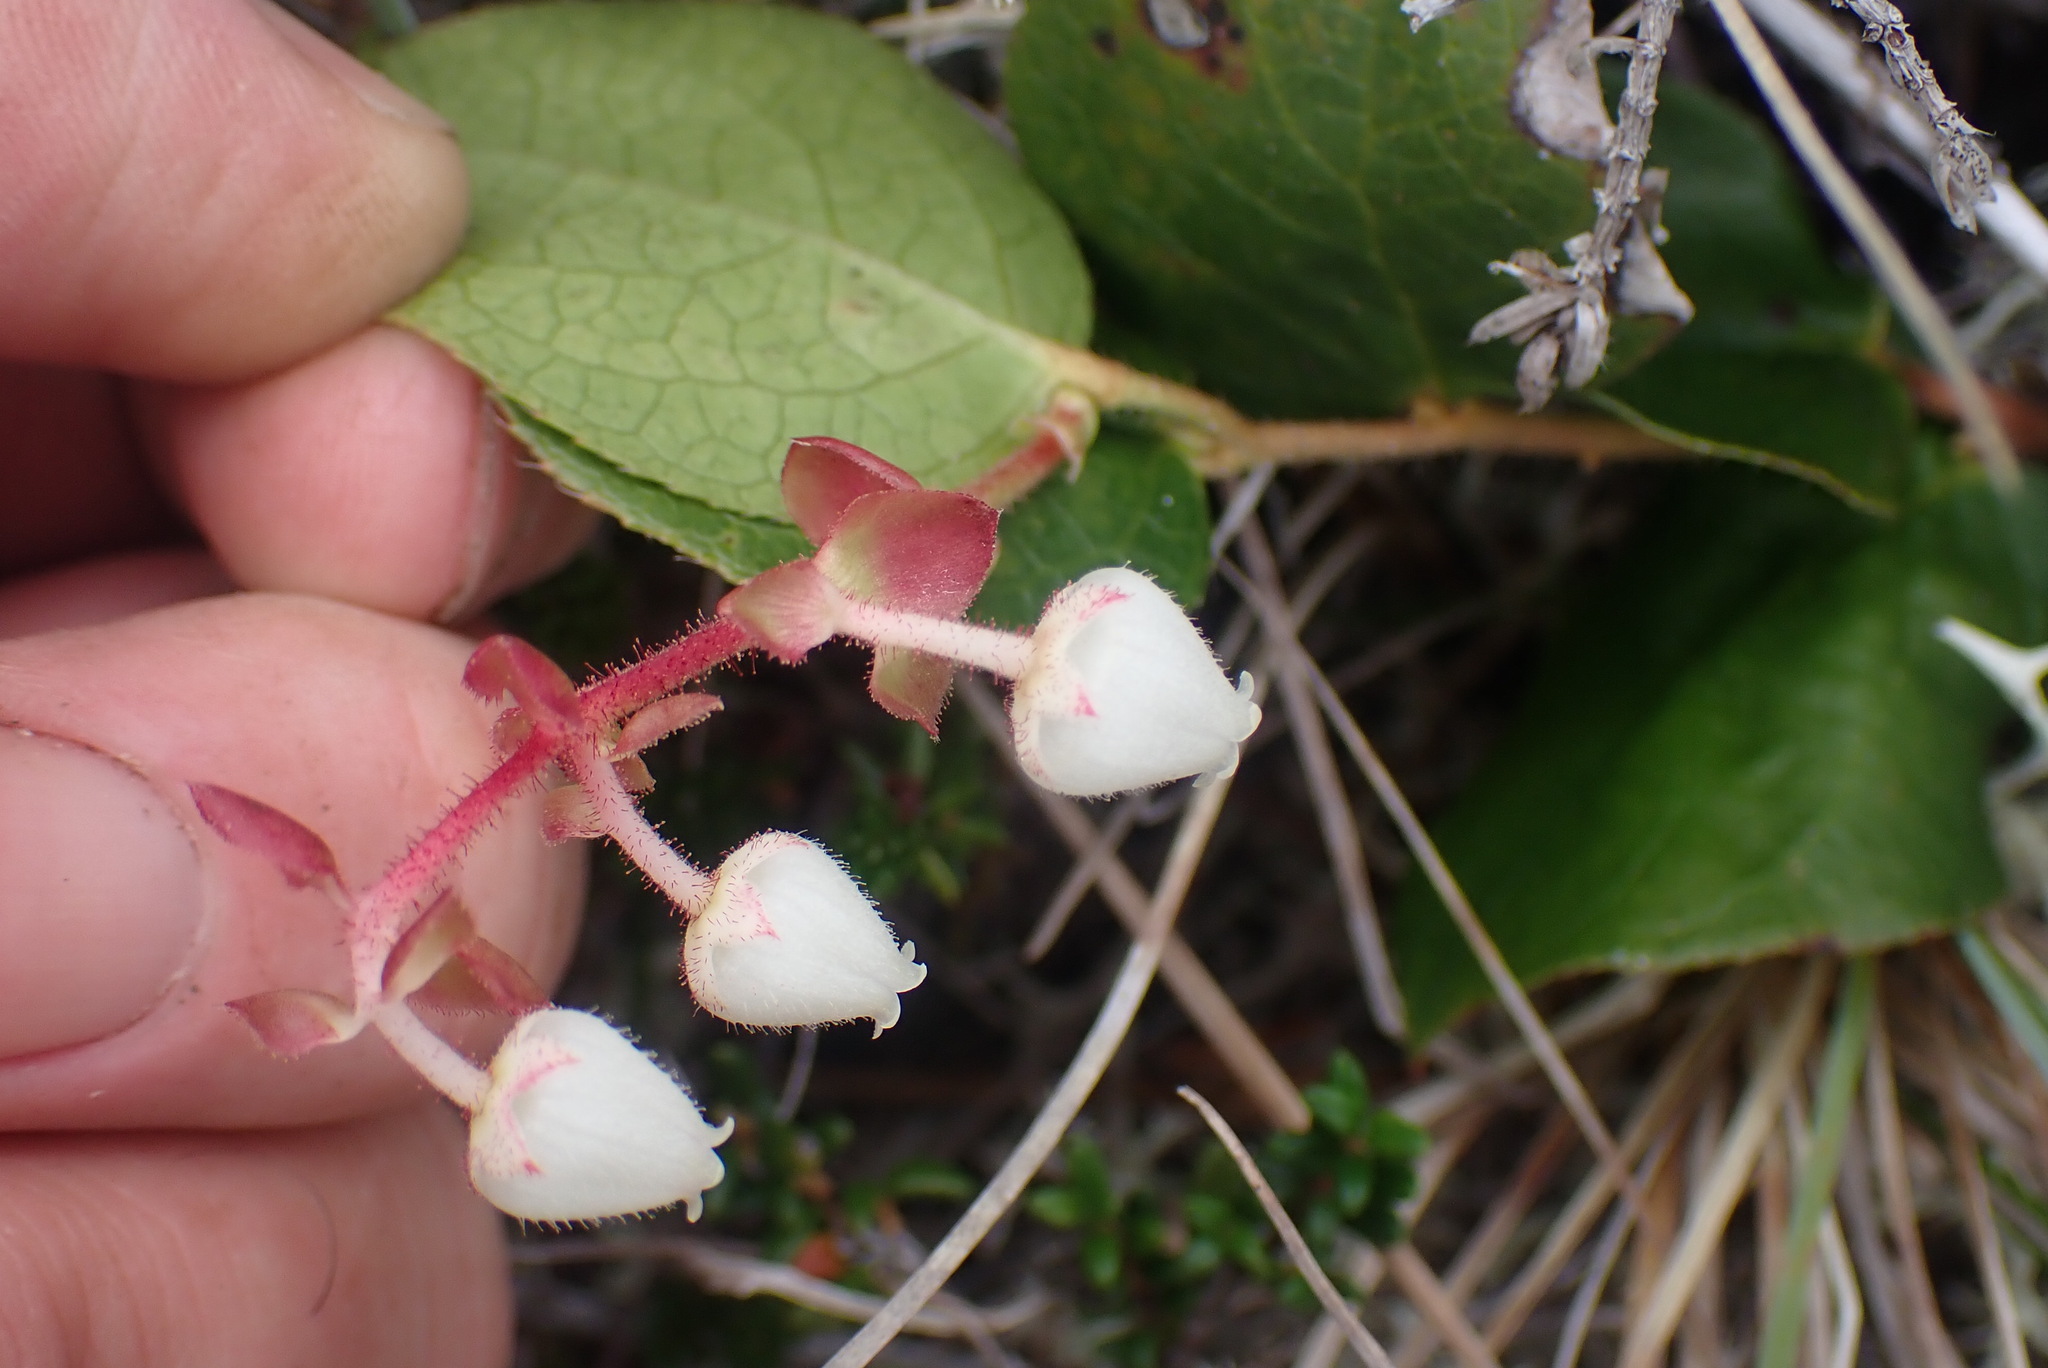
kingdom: Plantae
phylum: Tracheophyta
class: Magnoliopsida
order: Ericales
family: Ericaceae
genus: Gaultheria
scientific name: Gaultheria shallon
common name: Shallon
